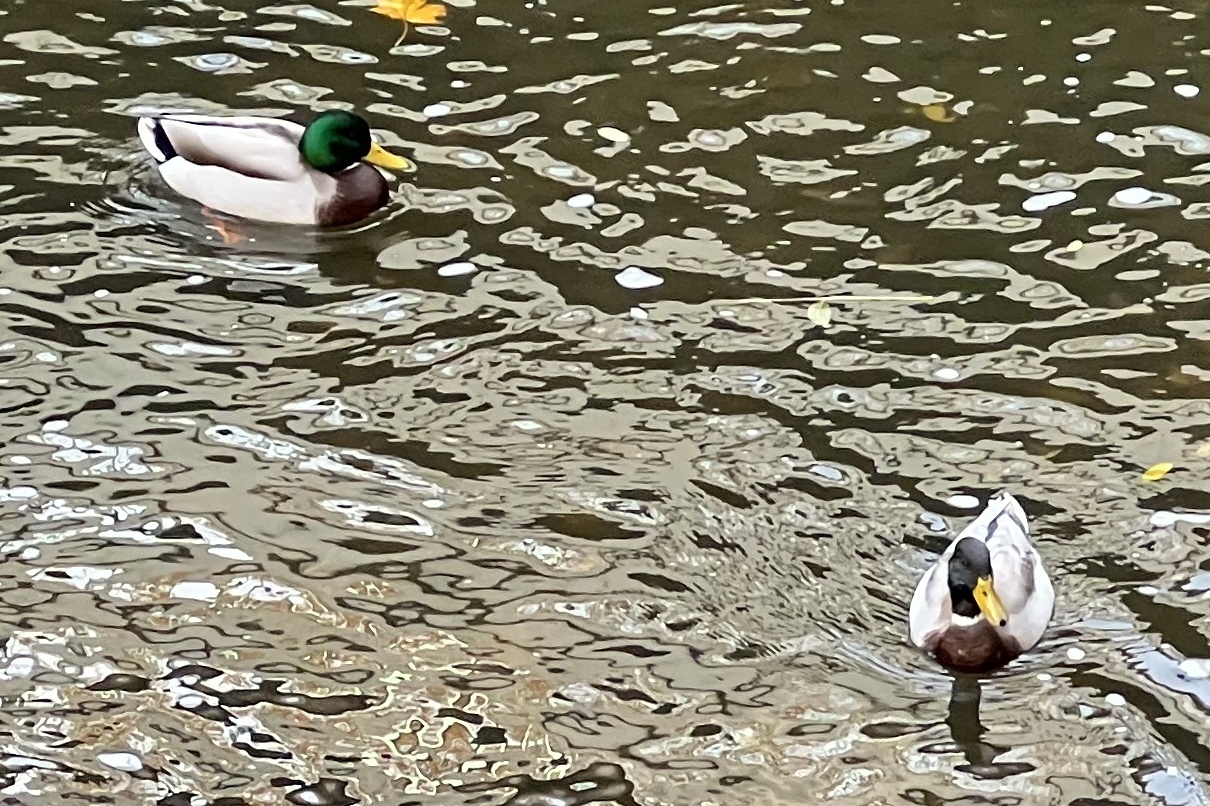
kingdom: Animalia
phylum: Chordata
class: Aves
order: Anseriformes
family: Anatidae
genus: Anas
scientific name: Anas platyrhynchos
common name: Mallard
